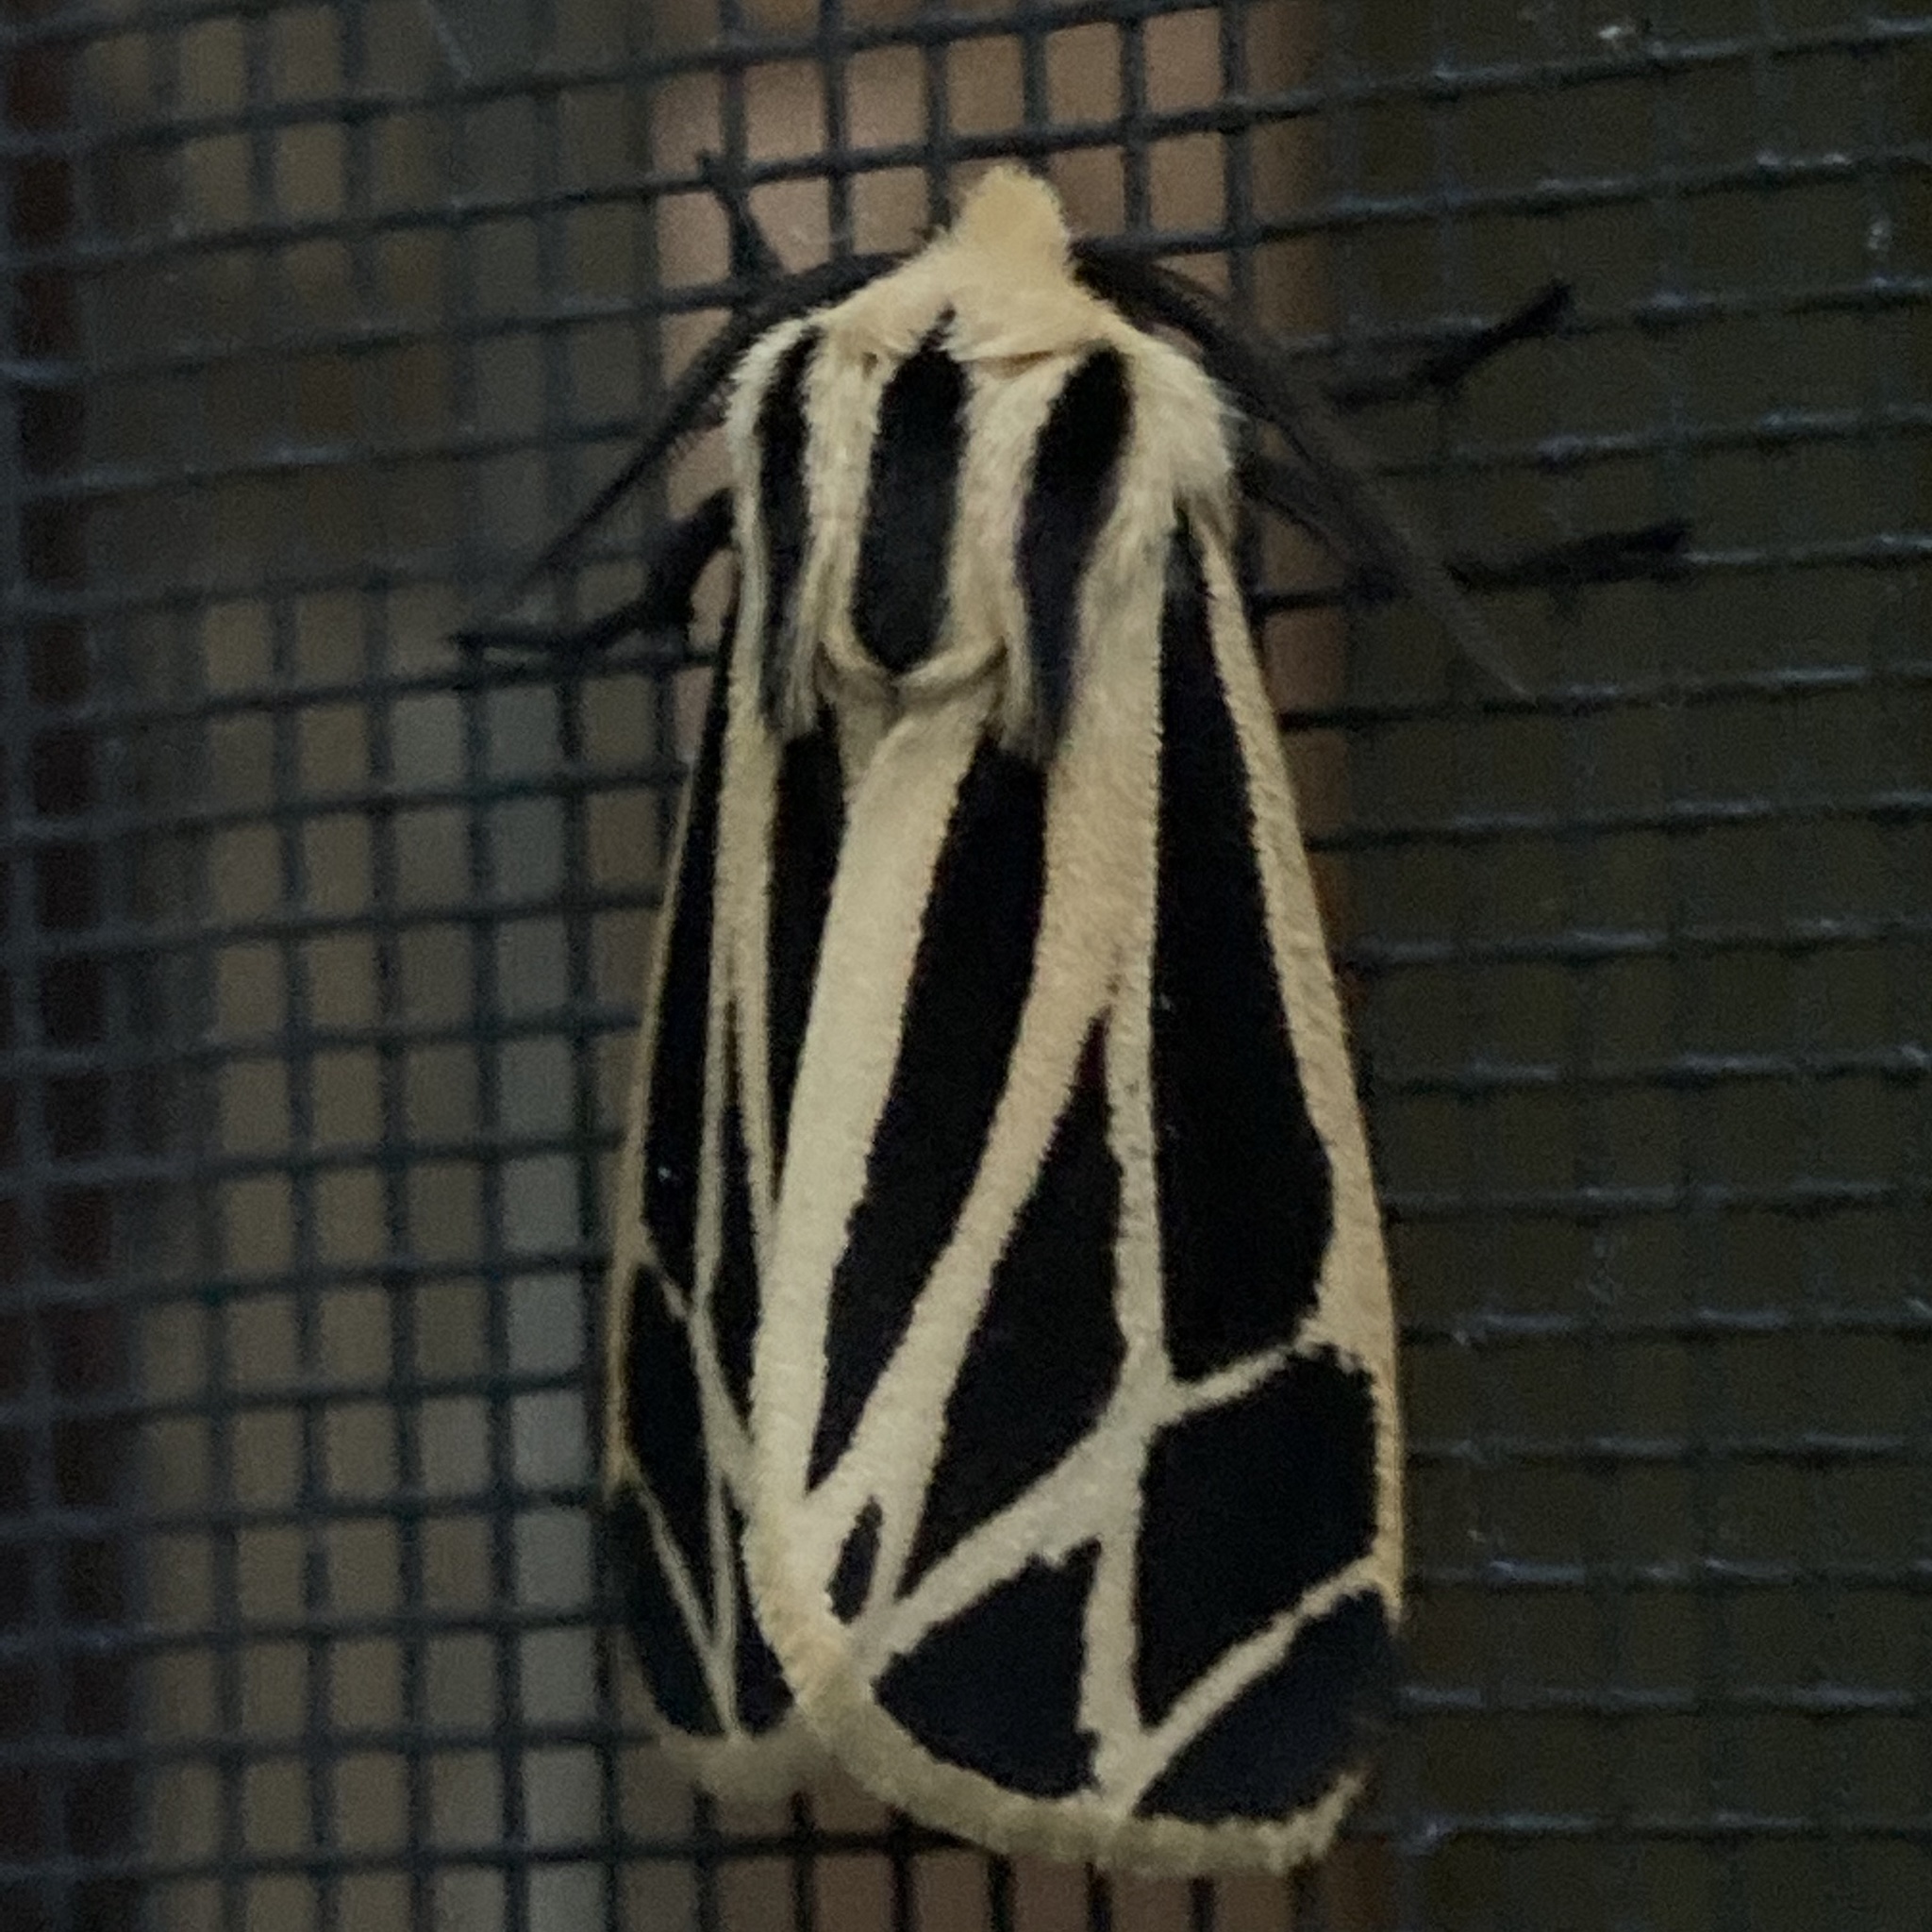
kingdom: Animalia
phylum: Arthropoda
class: Insecta
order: Lepidoptera
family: Erebidae
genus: Apantesis
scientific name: Apantesis phalerata
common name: Harnessed tiger moth
